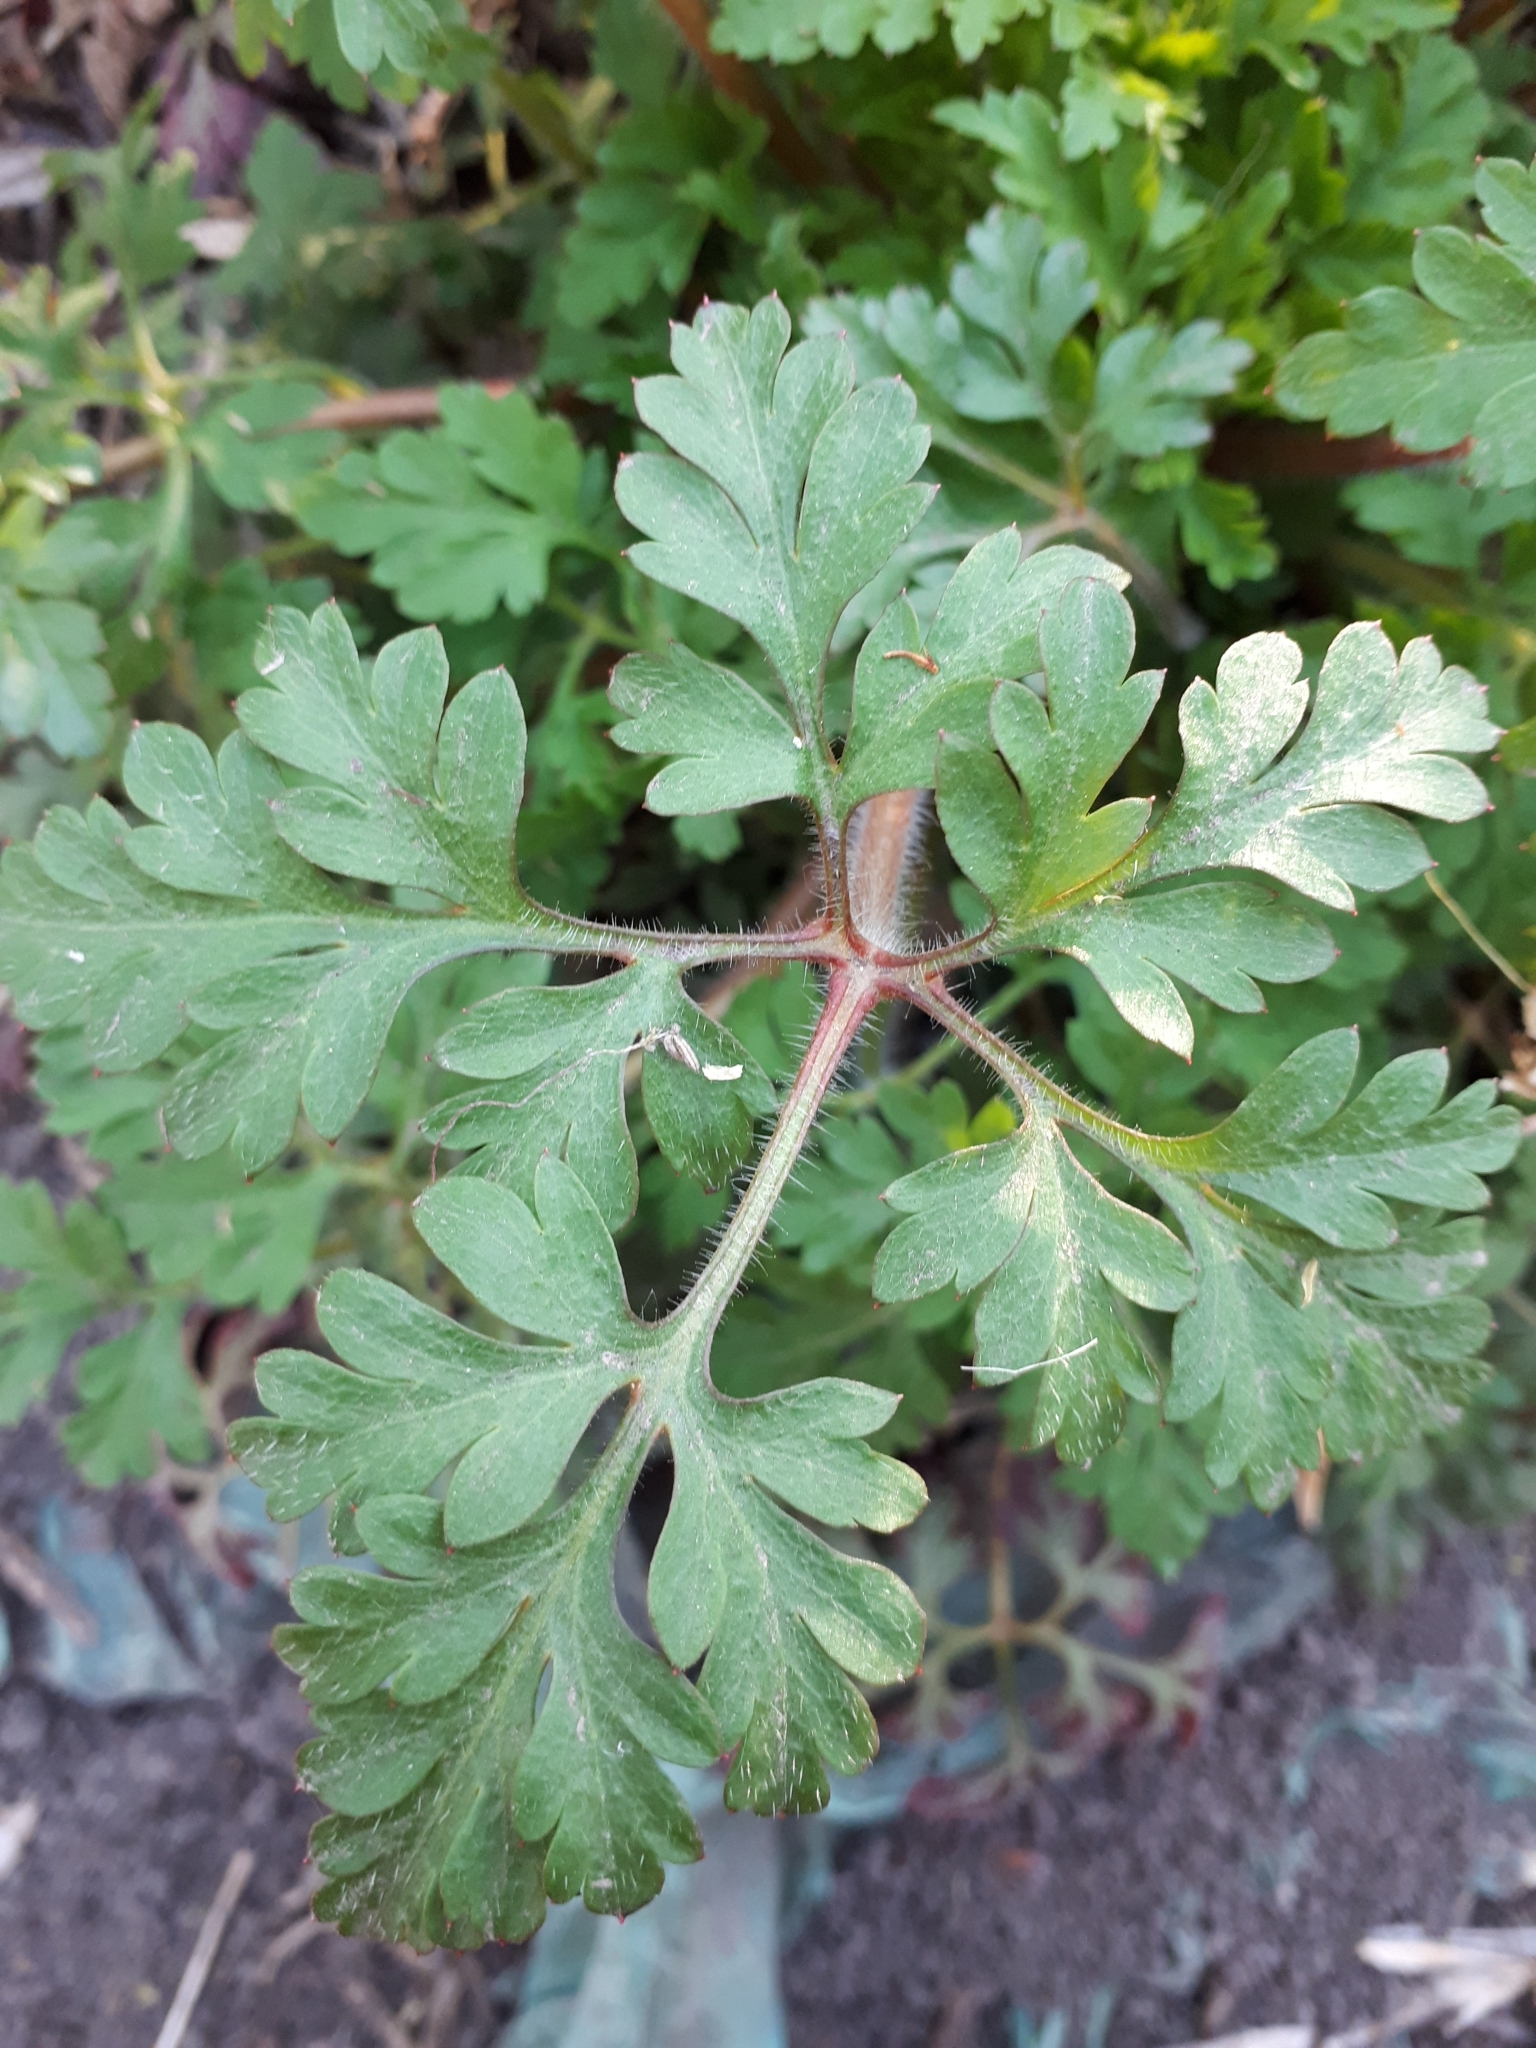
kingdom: Plantae
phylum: Tracheophyta
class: Magnoliopsida
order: Geraniales
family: Geraniaceae
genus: Geranium
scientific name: Geranium robertianum
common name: Herb-robert
